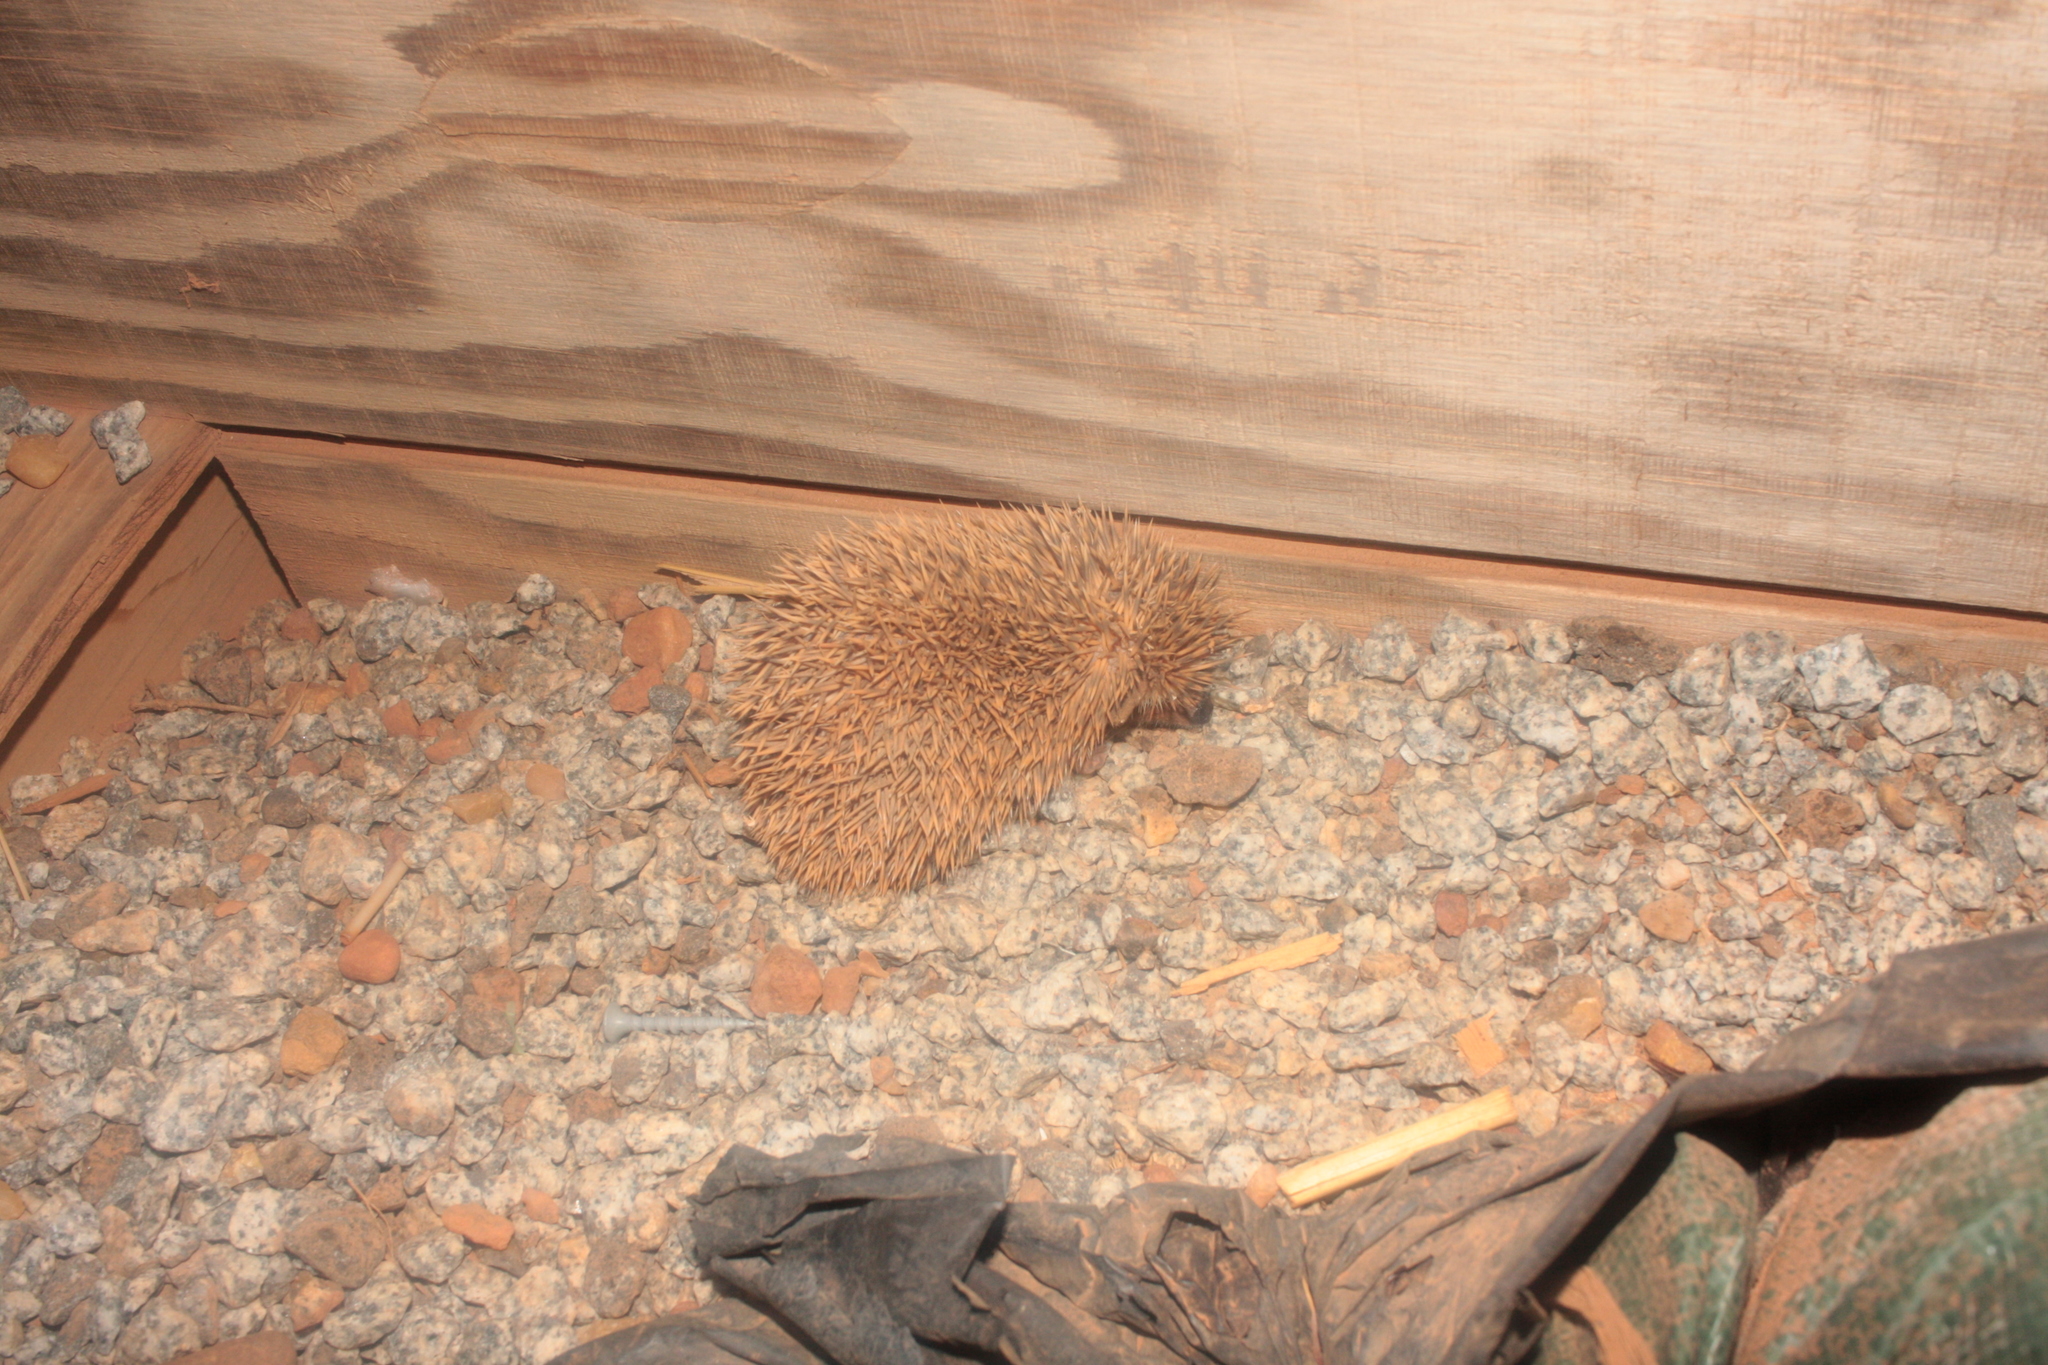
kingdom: Animalia
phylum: Chordata
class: Mammalia
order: Erinaceomorpha
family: Erinaceidae
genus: Atelerix
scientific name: Atelerix albiventris
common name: Four-toed hedgehog
